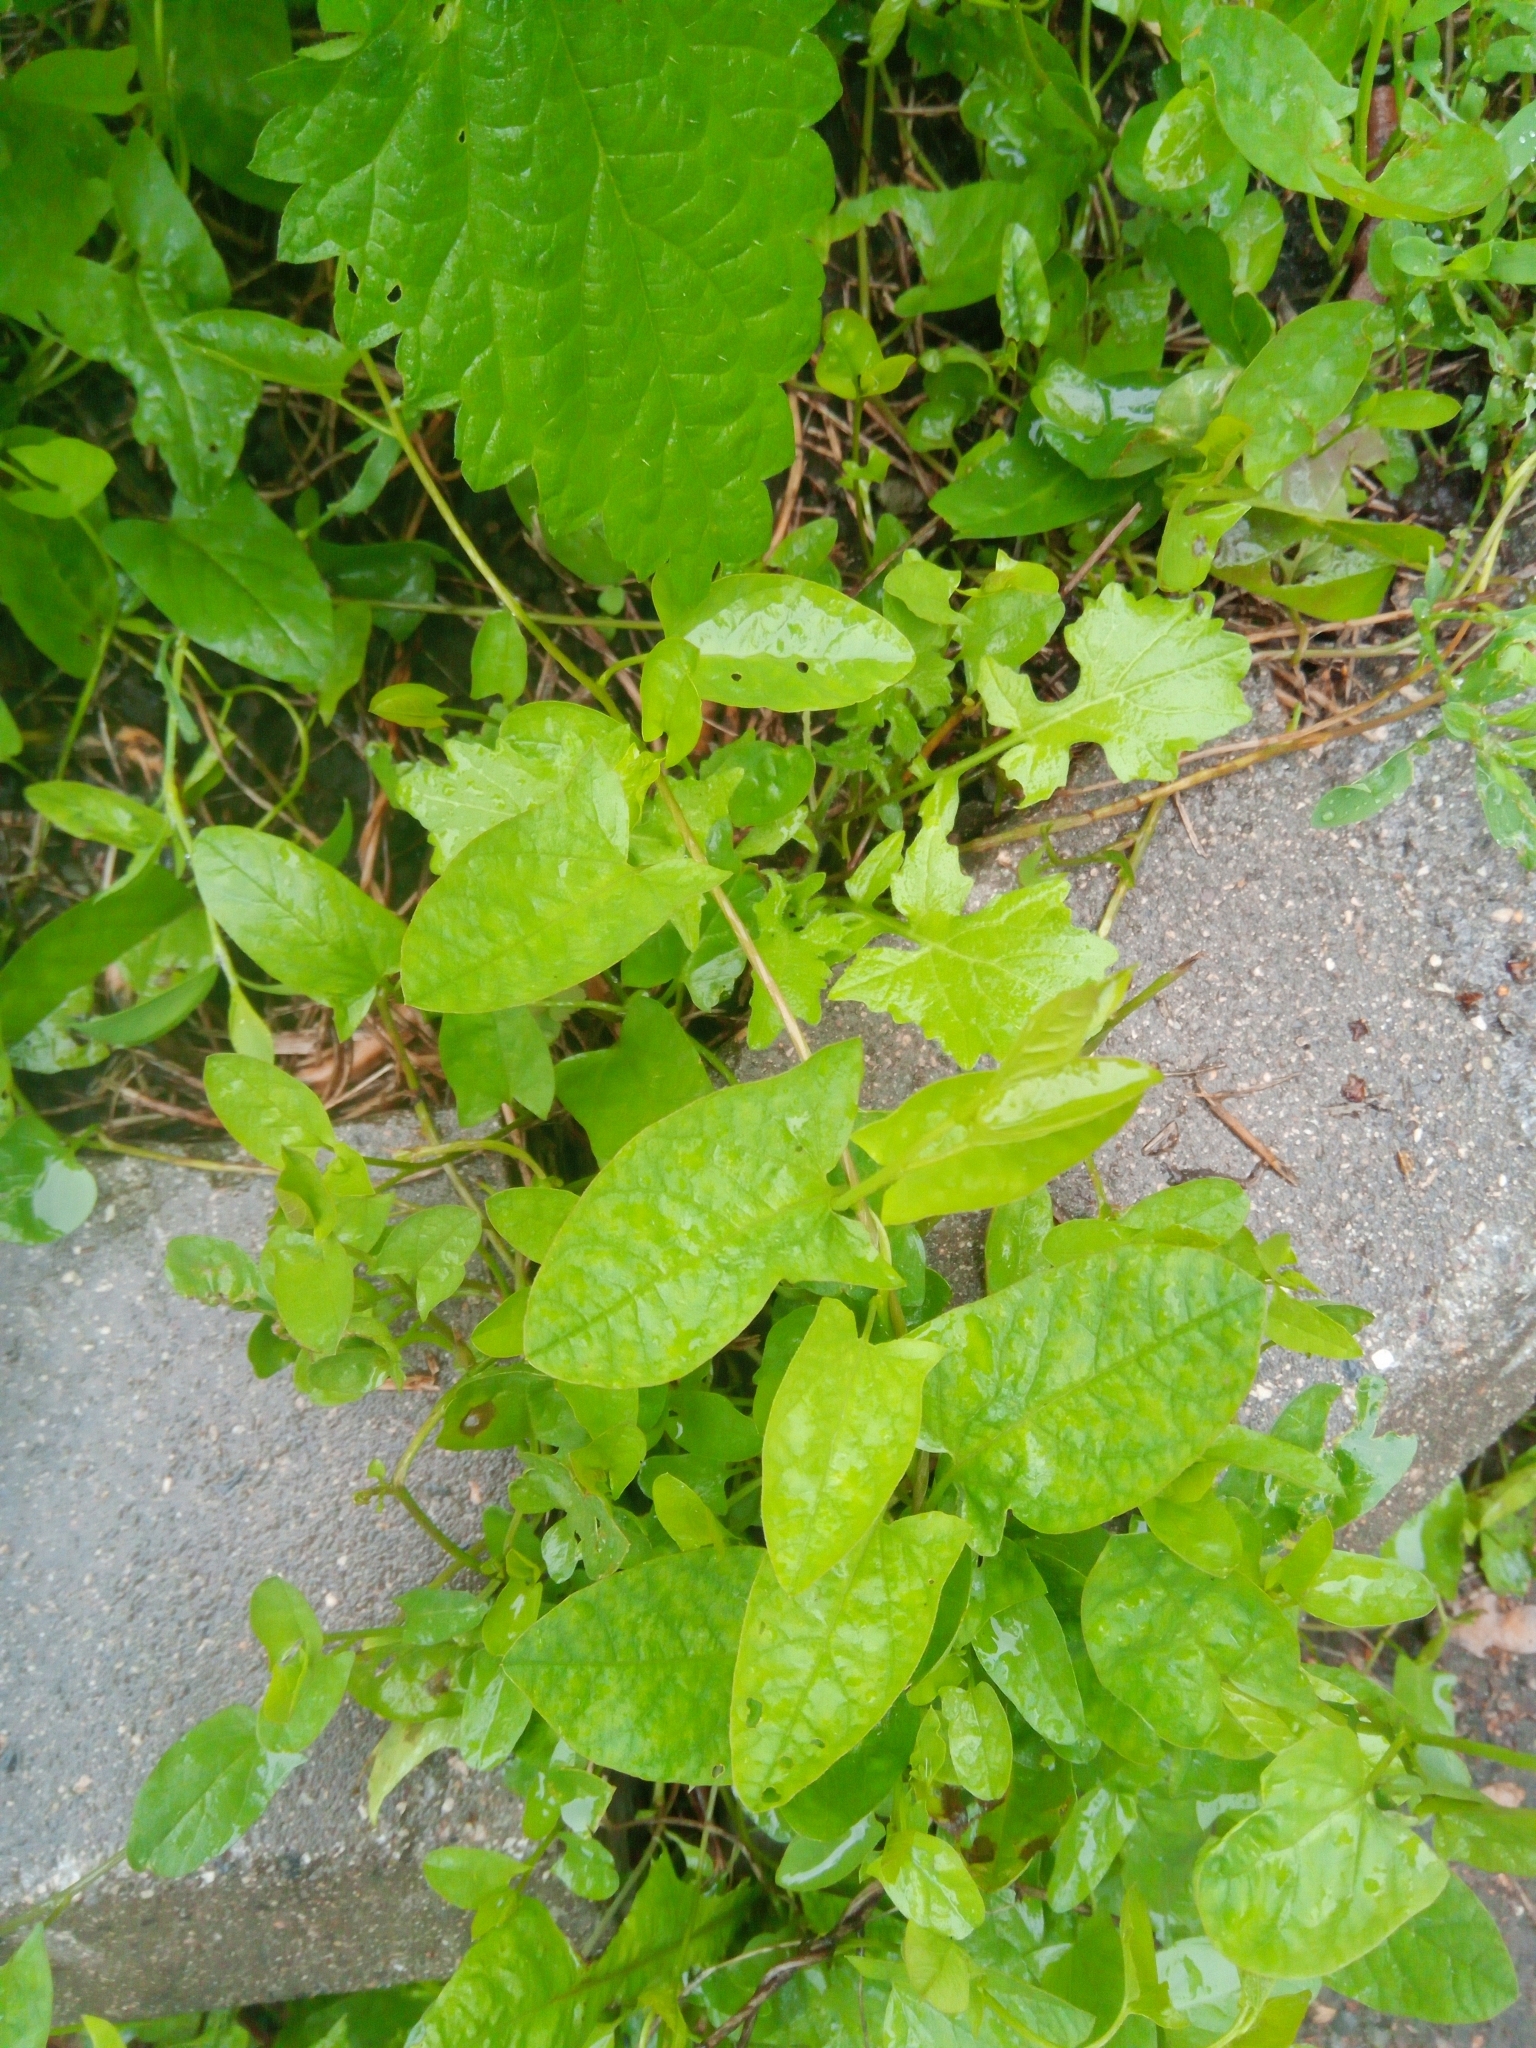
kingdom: Plantae
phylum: Tracheophyta
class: Magnoliopsida
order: Solanales
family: Convolvulaceae
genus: Convolvulus
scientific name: Convolvulus arvensis
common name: Field bindweed
